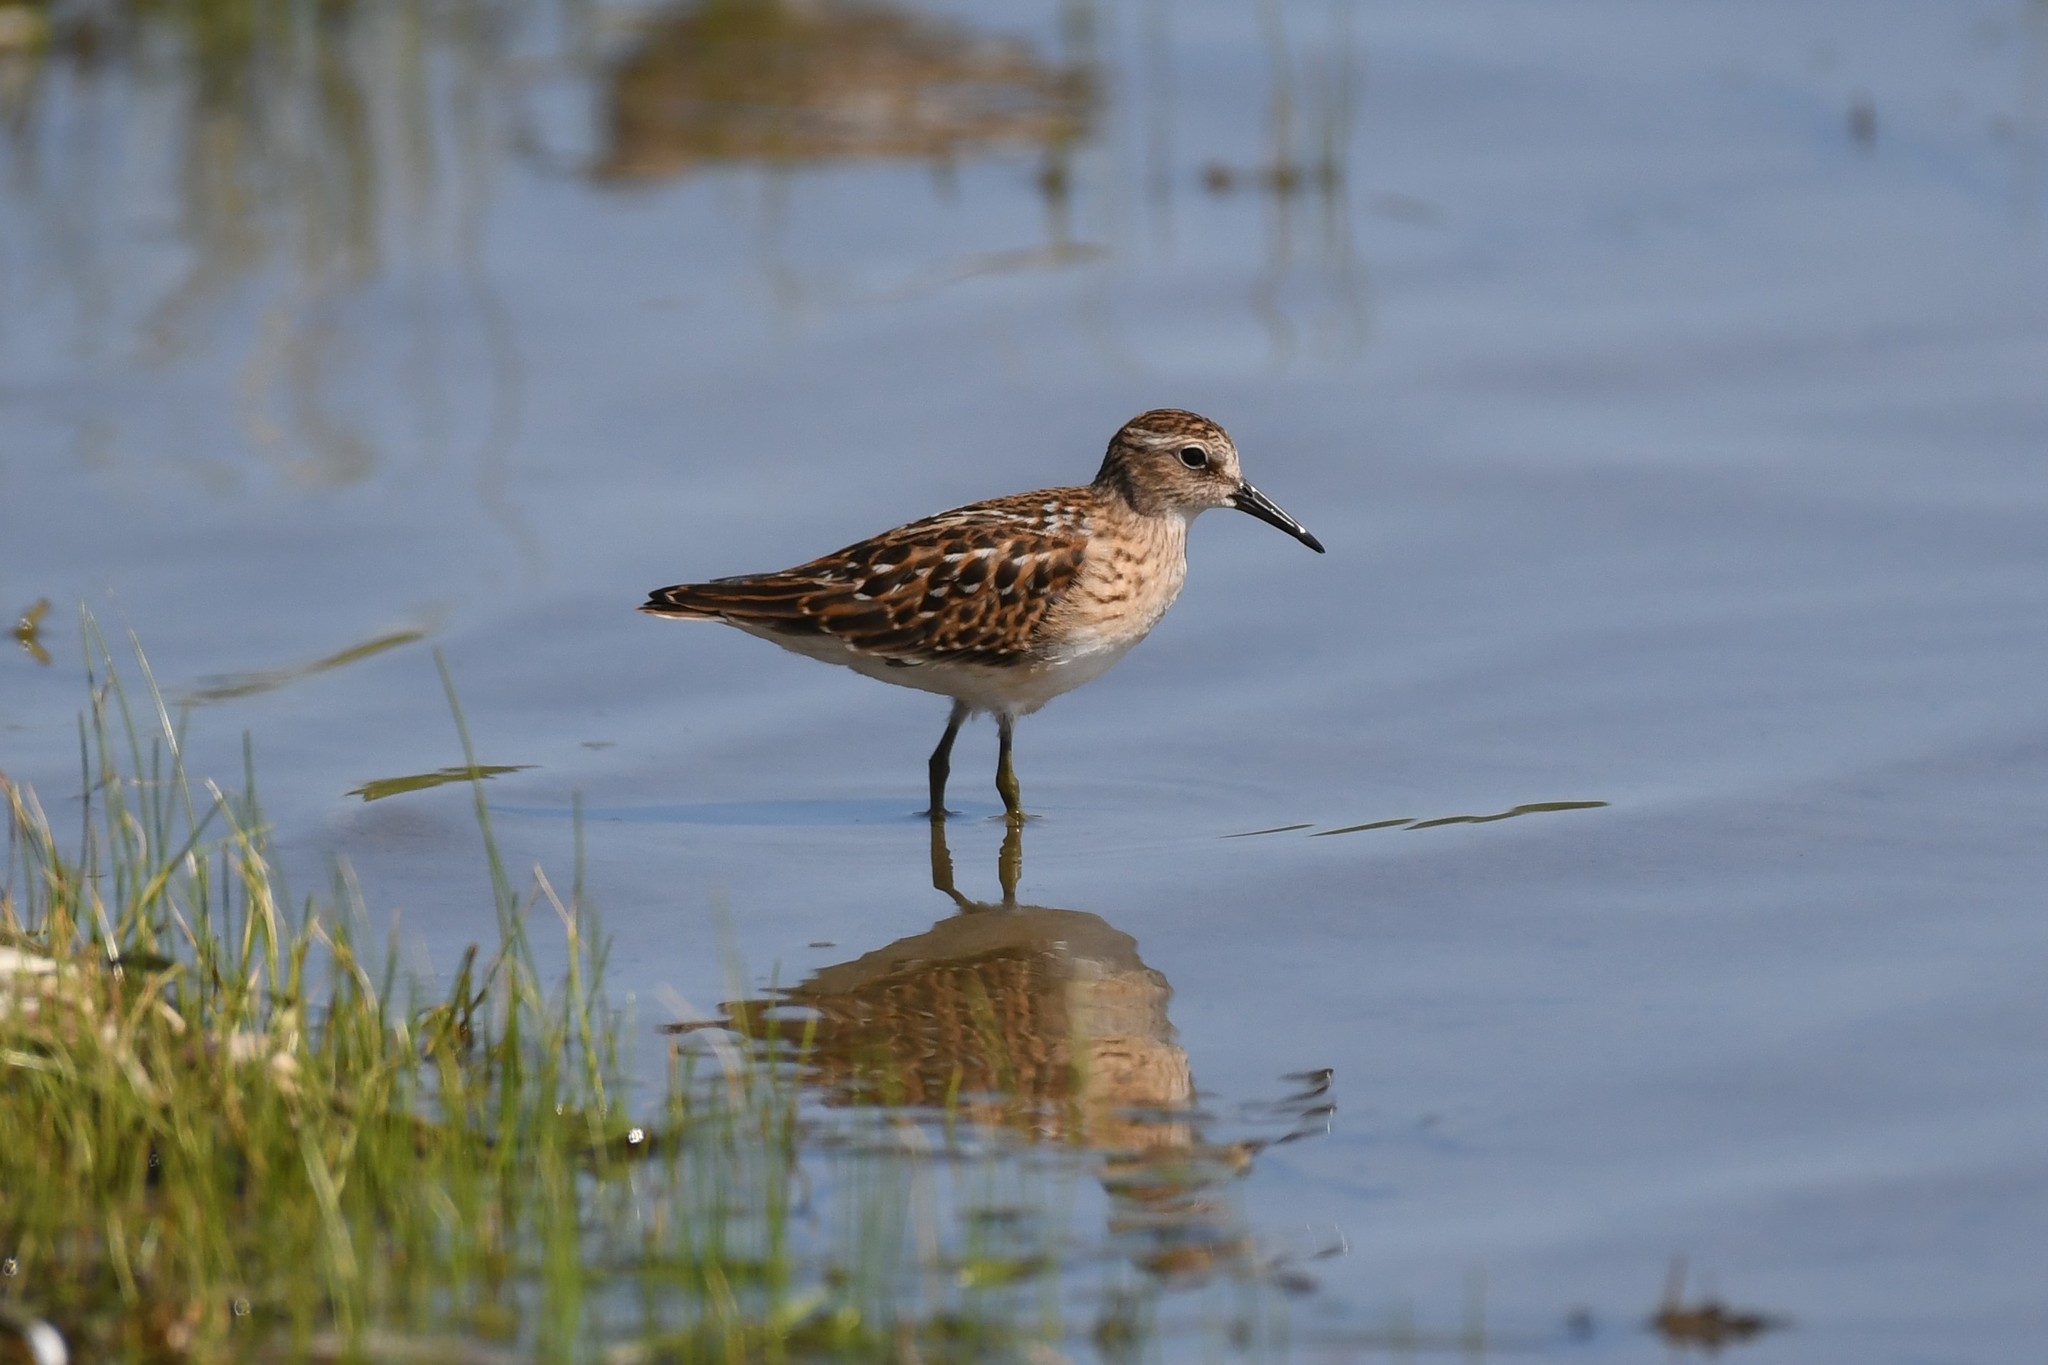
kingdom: Animalia
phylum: Chordata
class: Aves
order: Charadriiformes
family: Scolopacidae
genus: Calidris
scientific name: Calidris minutilla
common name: Least sandpiper
